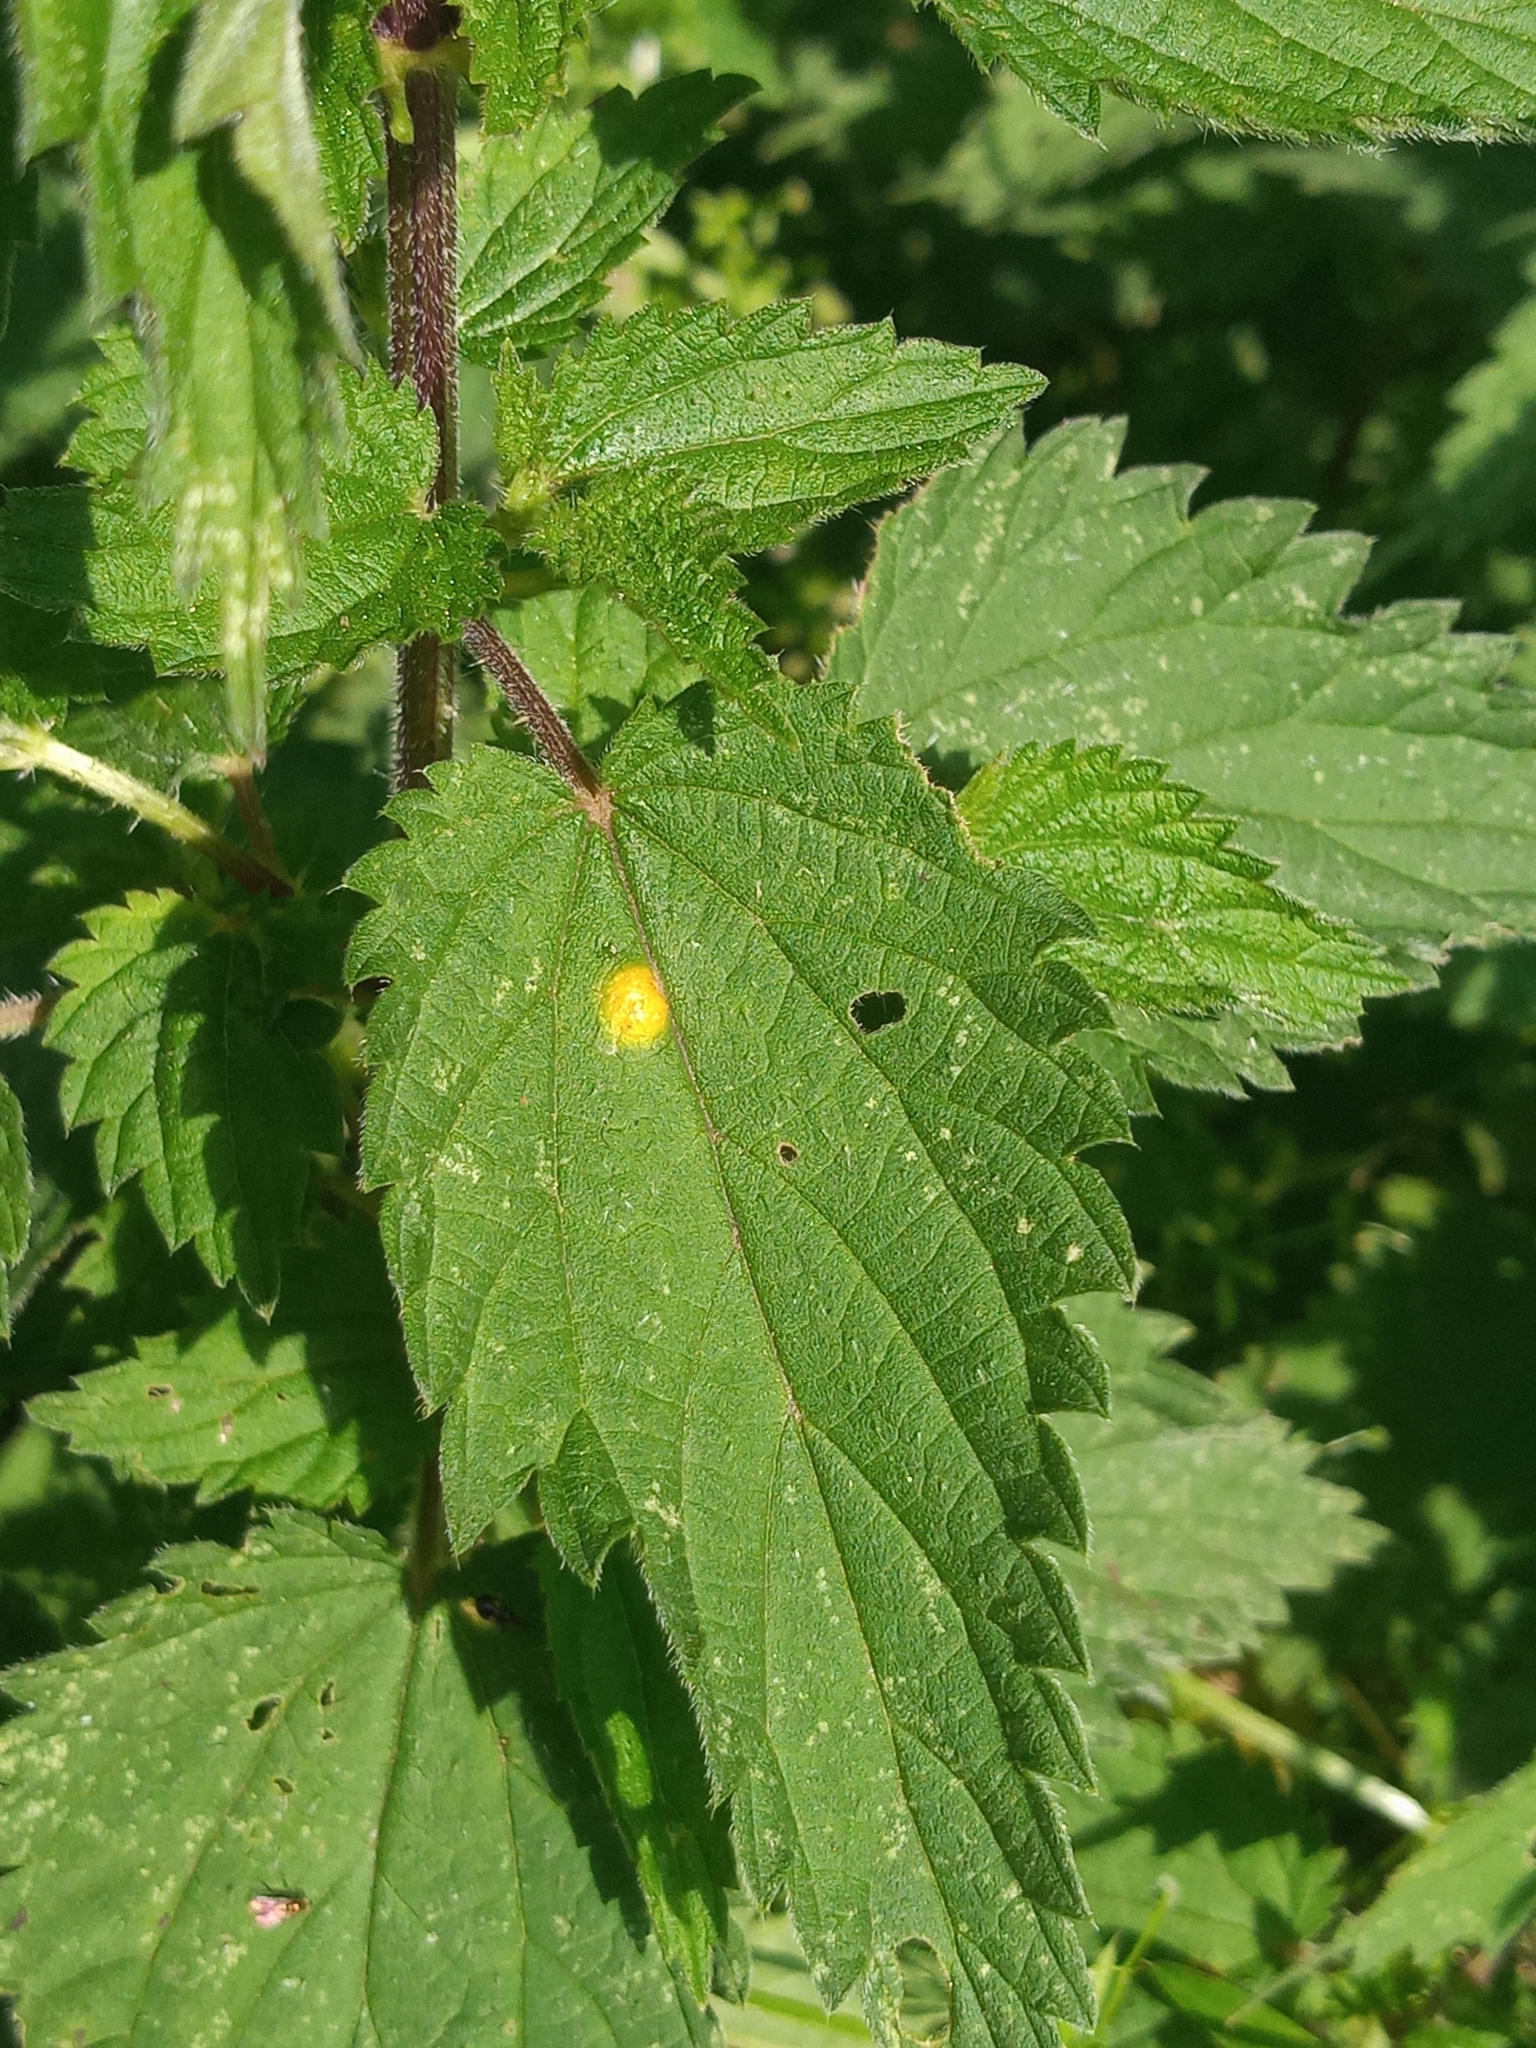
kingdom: Fungi
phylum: Basidiomycota
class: Pucciniomycetes
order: Pucciniales
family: Pucciniaceae
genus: Puccinia
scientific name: Puccinia urticata
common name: Nettle clustercup rust fungus
